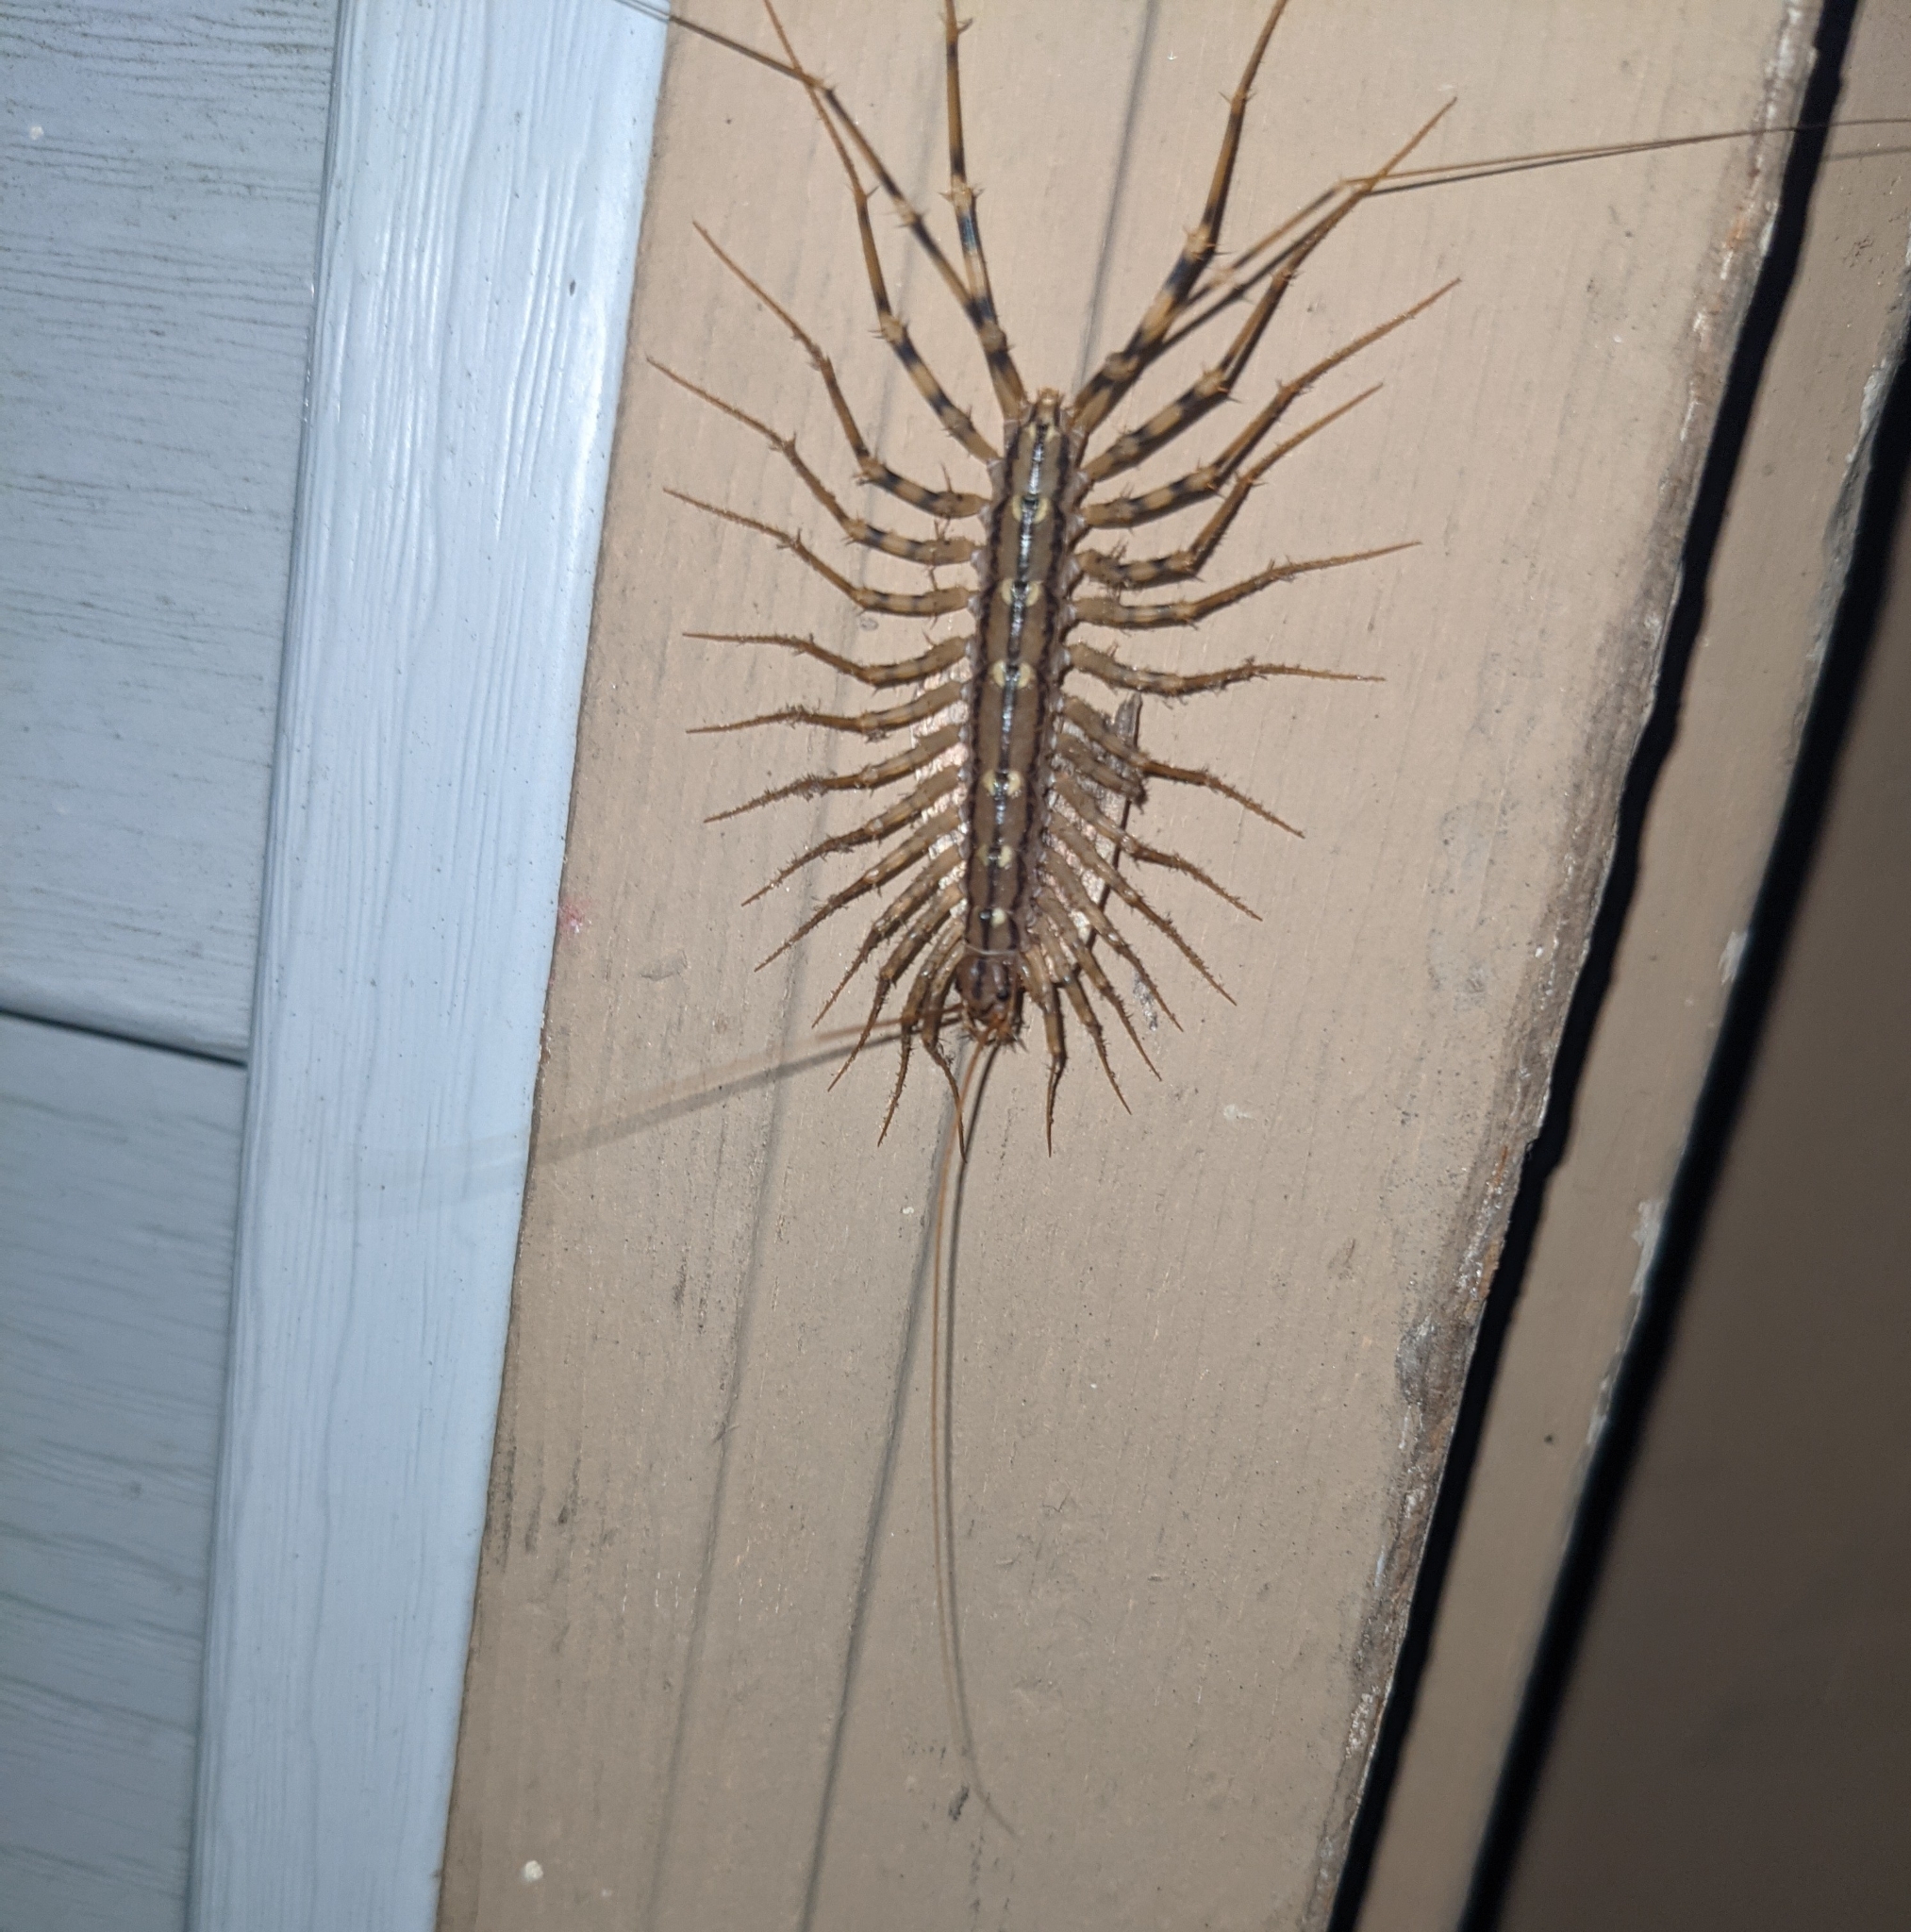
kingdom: Animalia
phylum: Arthropoda
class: Chilopoda
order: Scutigeromorpha
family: Scutigeridae
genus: Scutigera
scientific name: Scutigera coleoptrata
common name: House centipede
